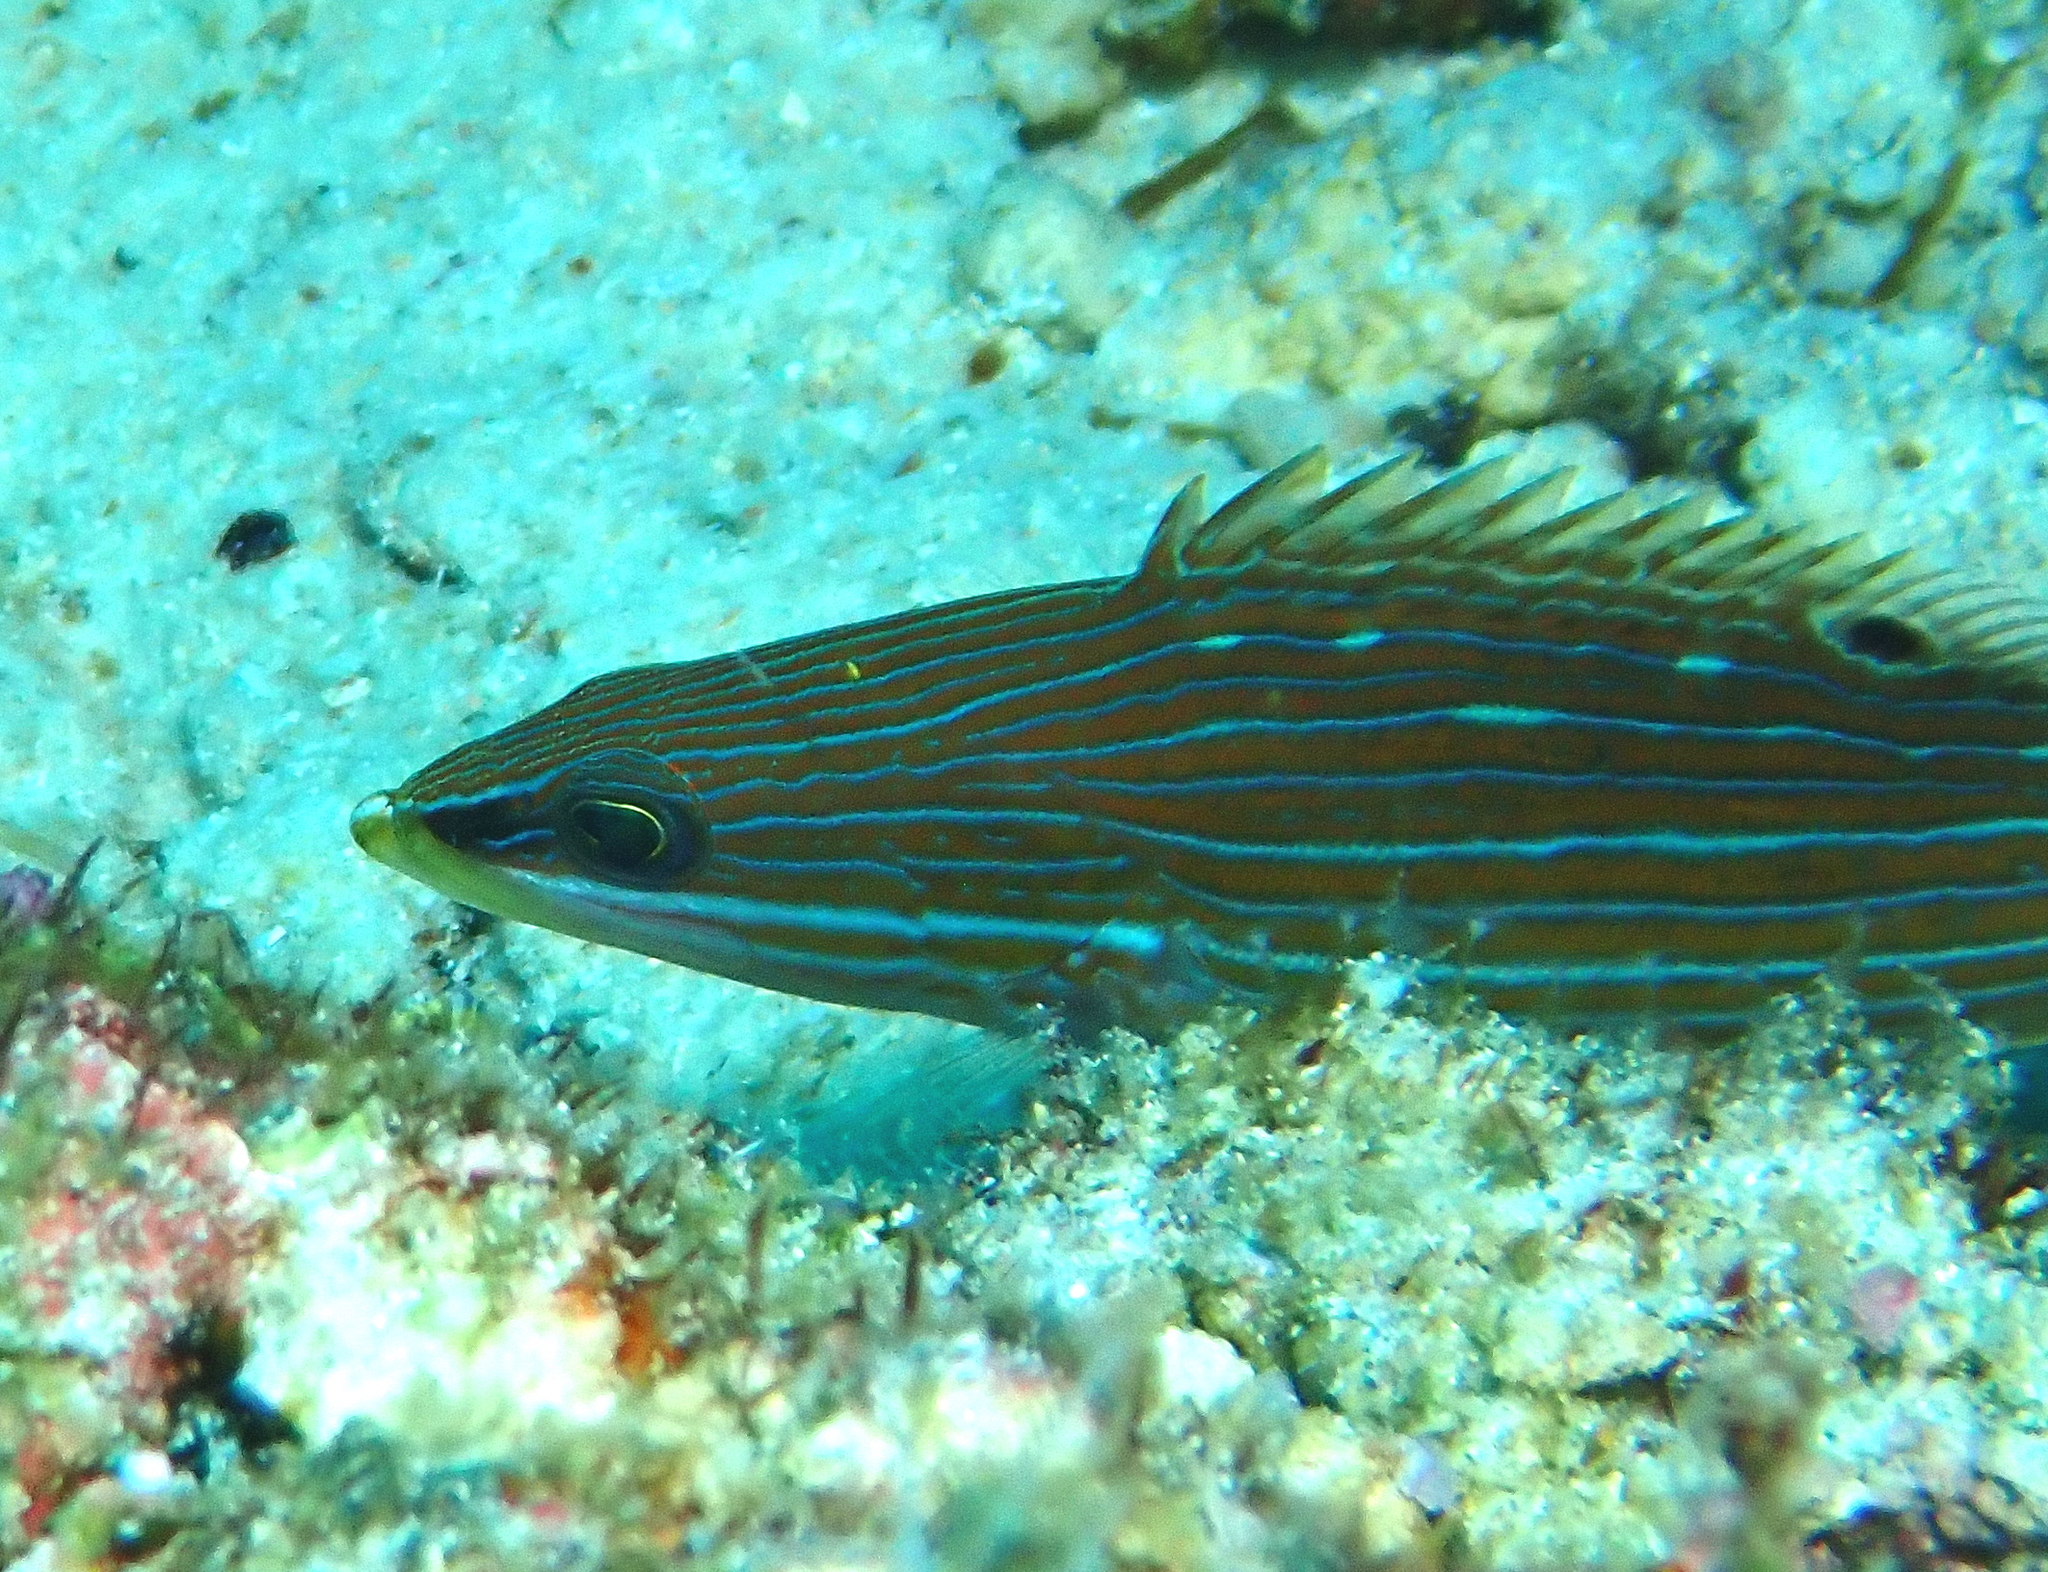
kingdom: Animalia
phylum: Chordata
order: Perciformes
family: Serranidae
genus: Anyperodon
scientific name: Anyperodon leucogrammicus
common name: Slender grouper
